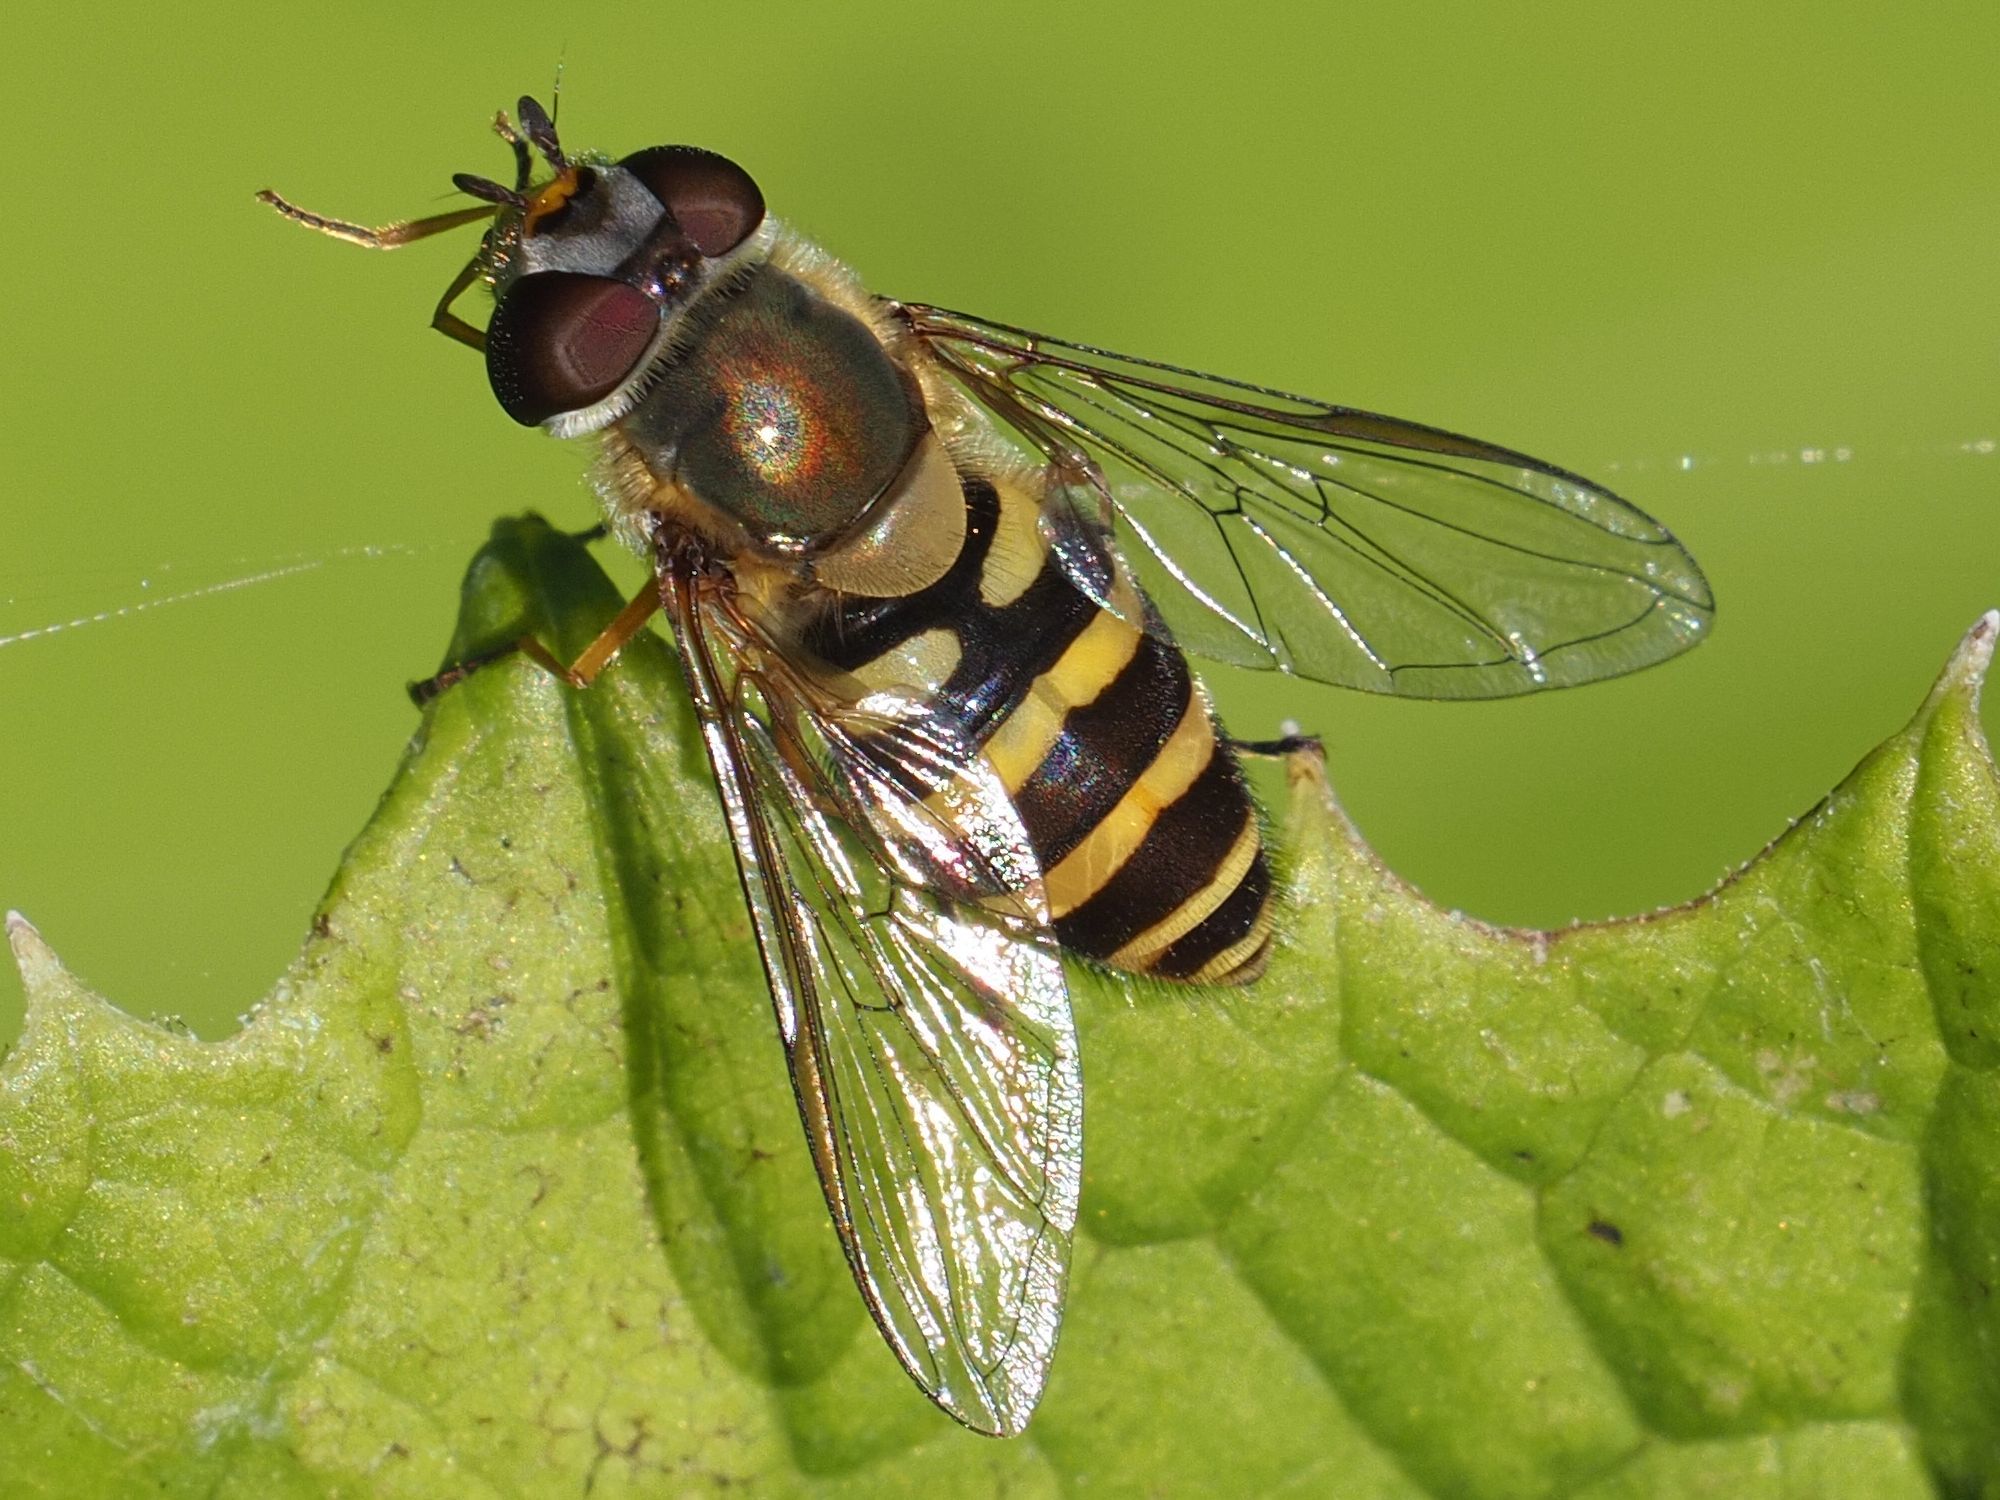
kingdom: Animalia
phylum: Arthropoda
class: Insecta
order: Diptera
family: Syrphidae
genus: Syrphus
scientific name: Syrphus torvus
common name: Hairy-eyed flower fly
